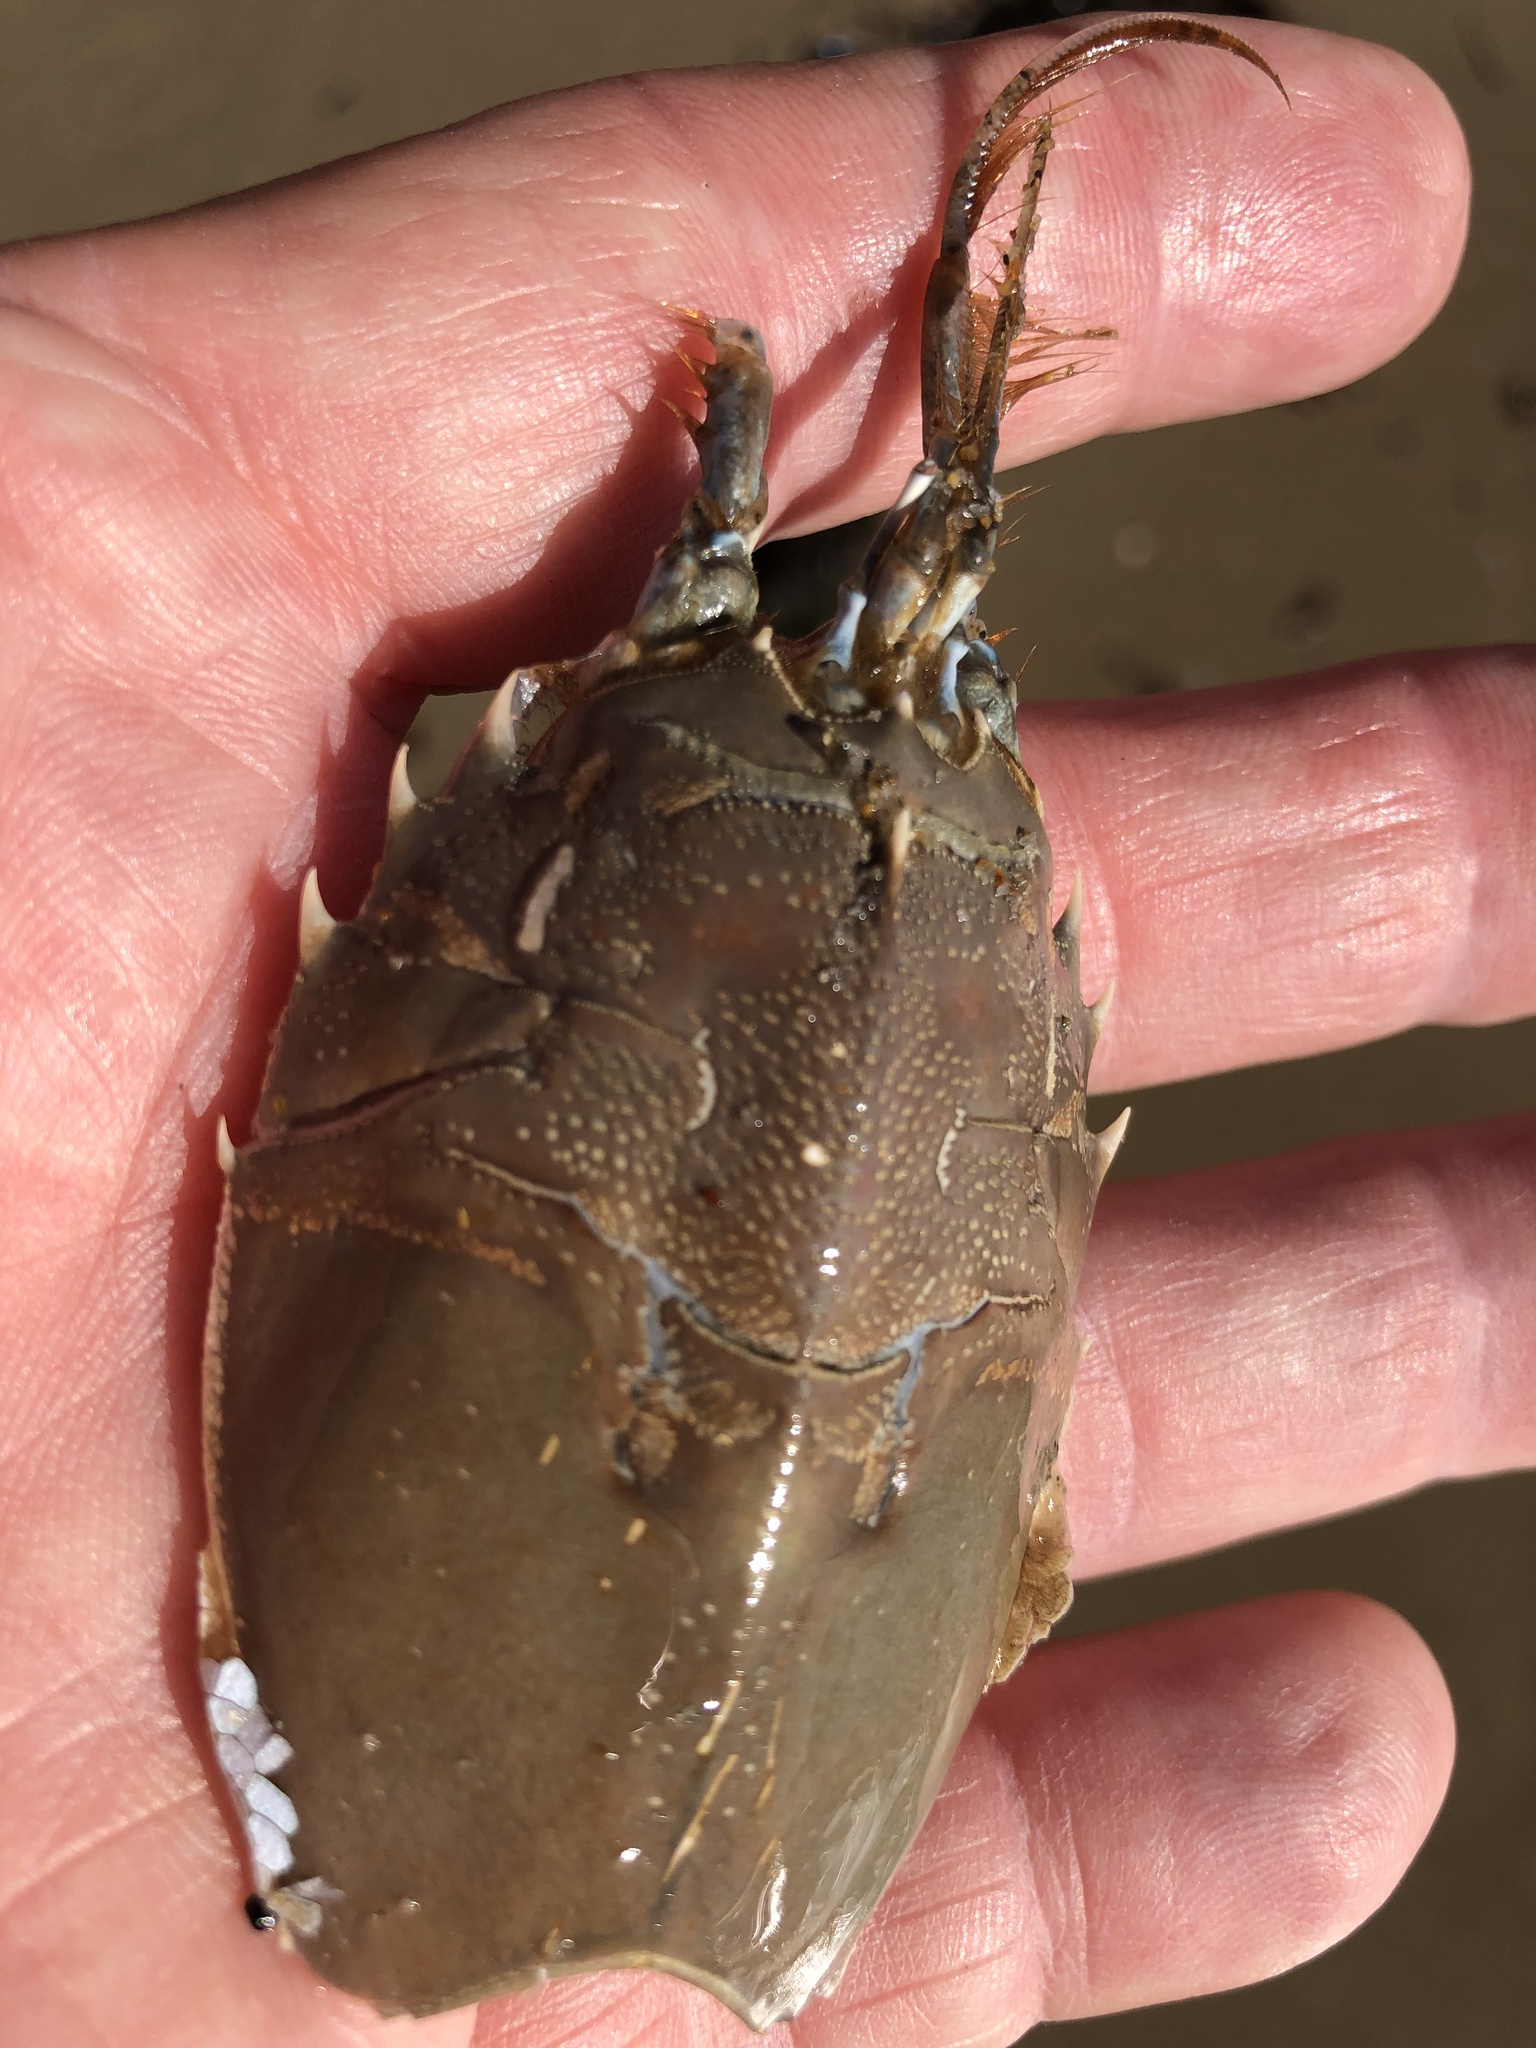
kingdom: Animalia
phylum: Arthropoda
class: Malacostraca
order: Decapoda
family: Blepharipodidae
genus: Blepharipoda
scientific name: Blepharipoda occidentalis
